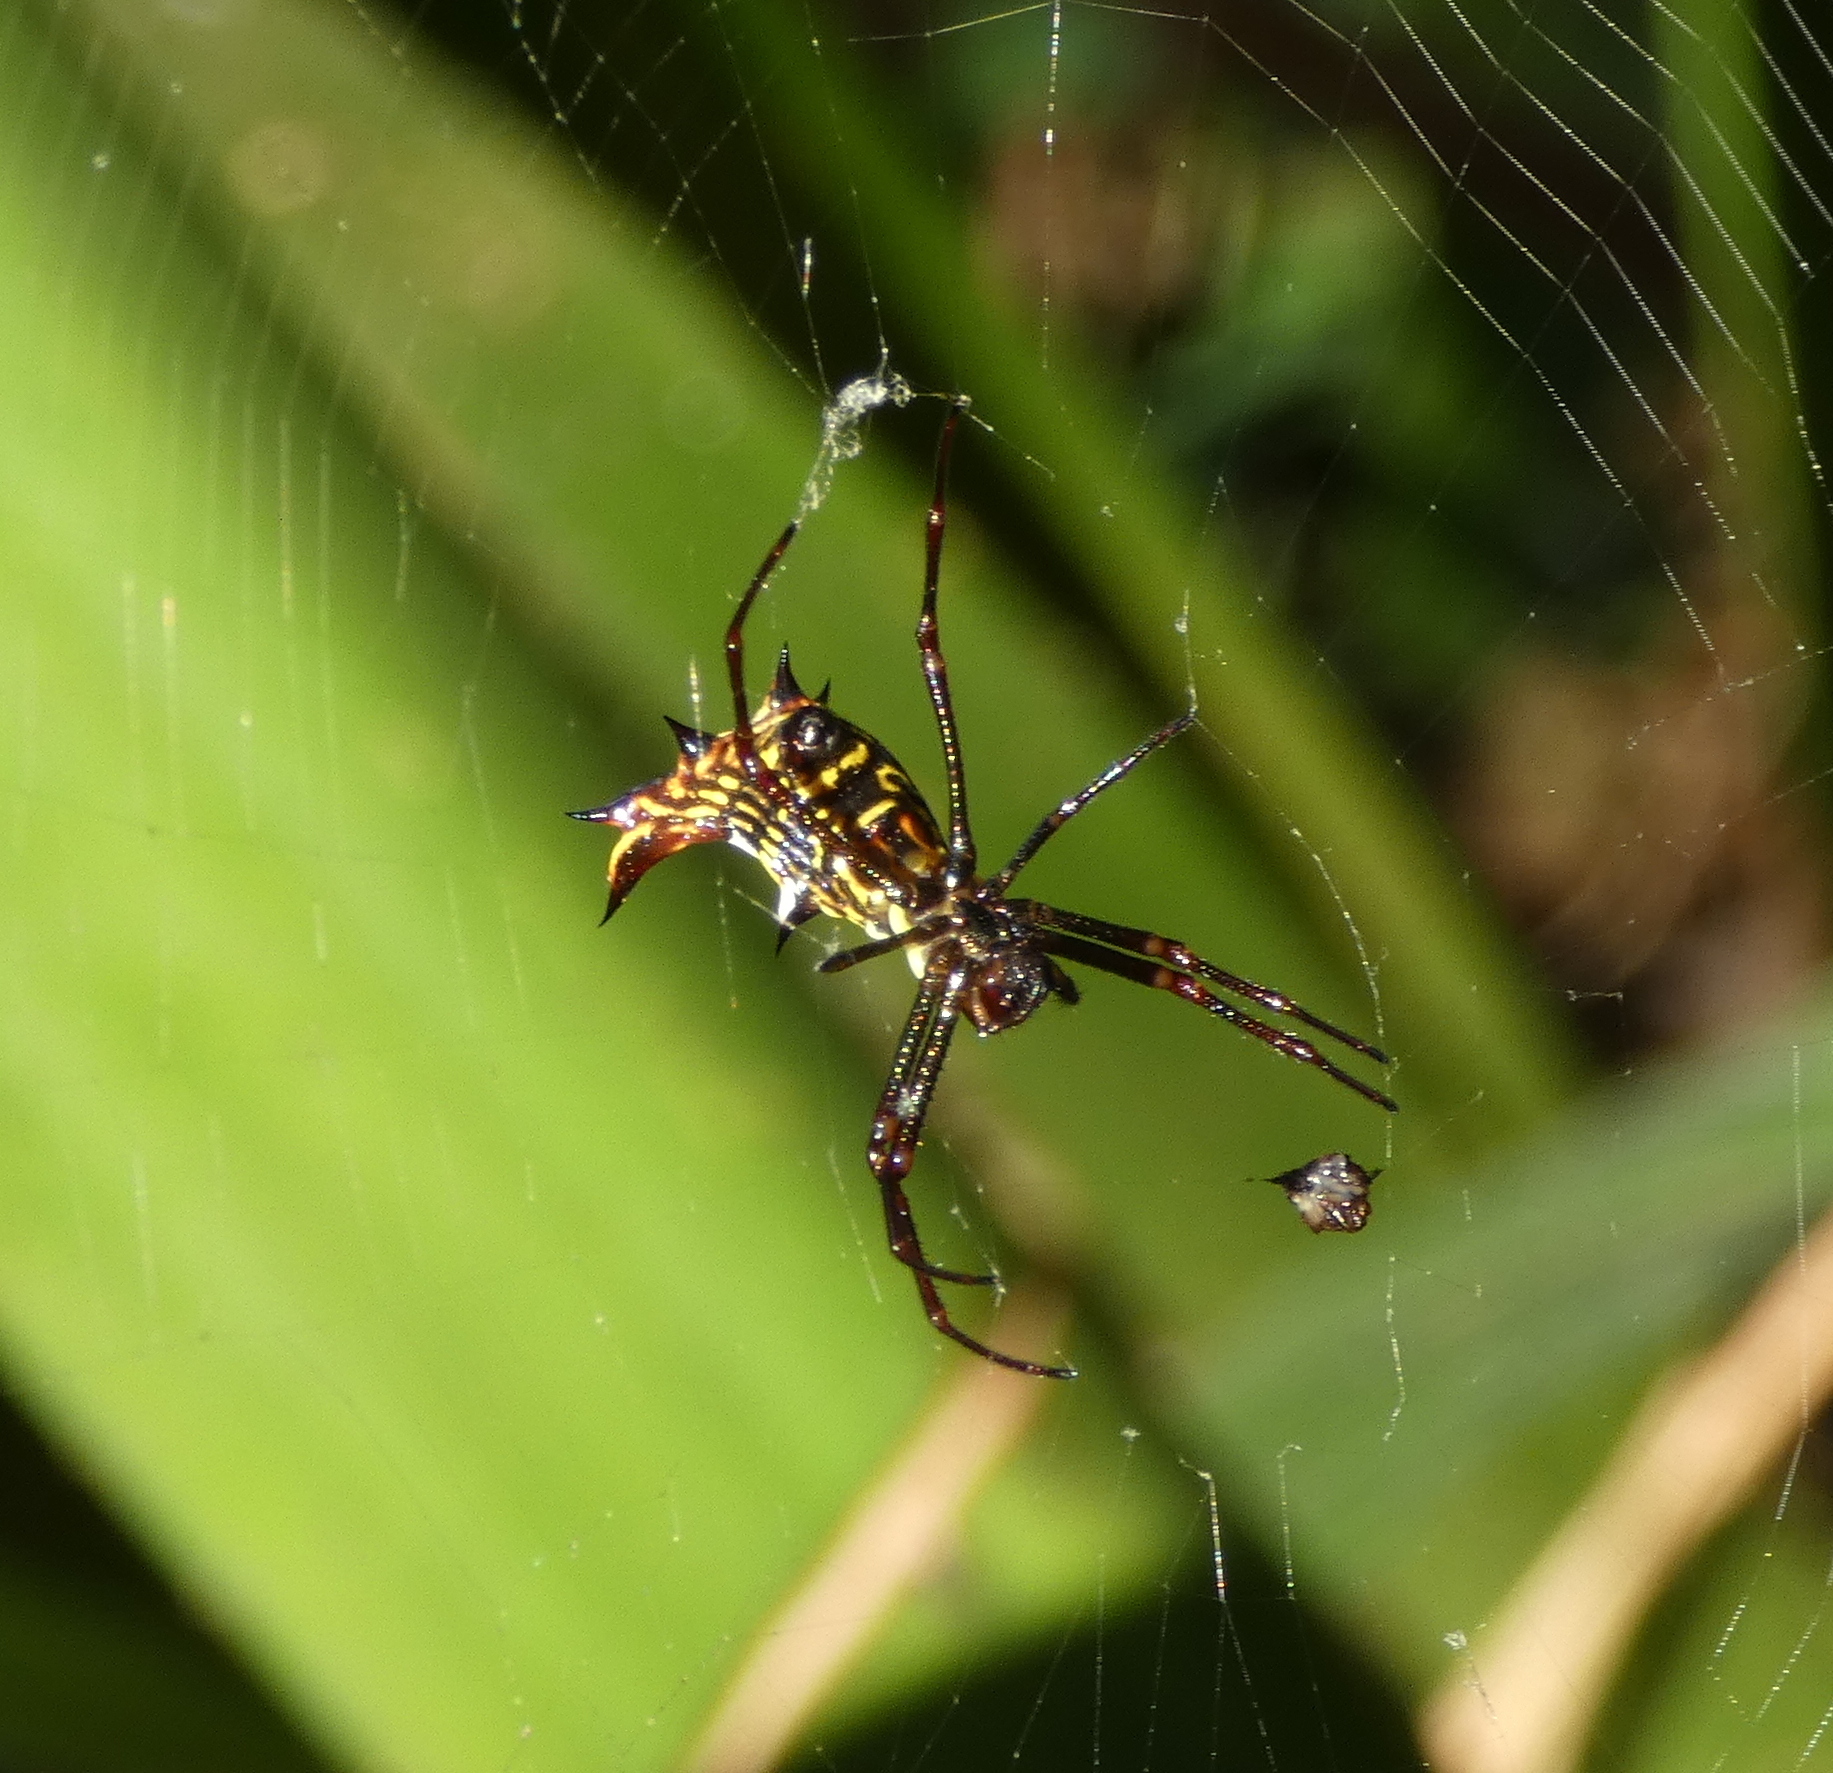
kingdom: Animalia
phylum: Arthropoda
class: Arachnida
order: Araneae
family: Araneidae
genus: Micrathena
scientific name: Micrathena fissispina
